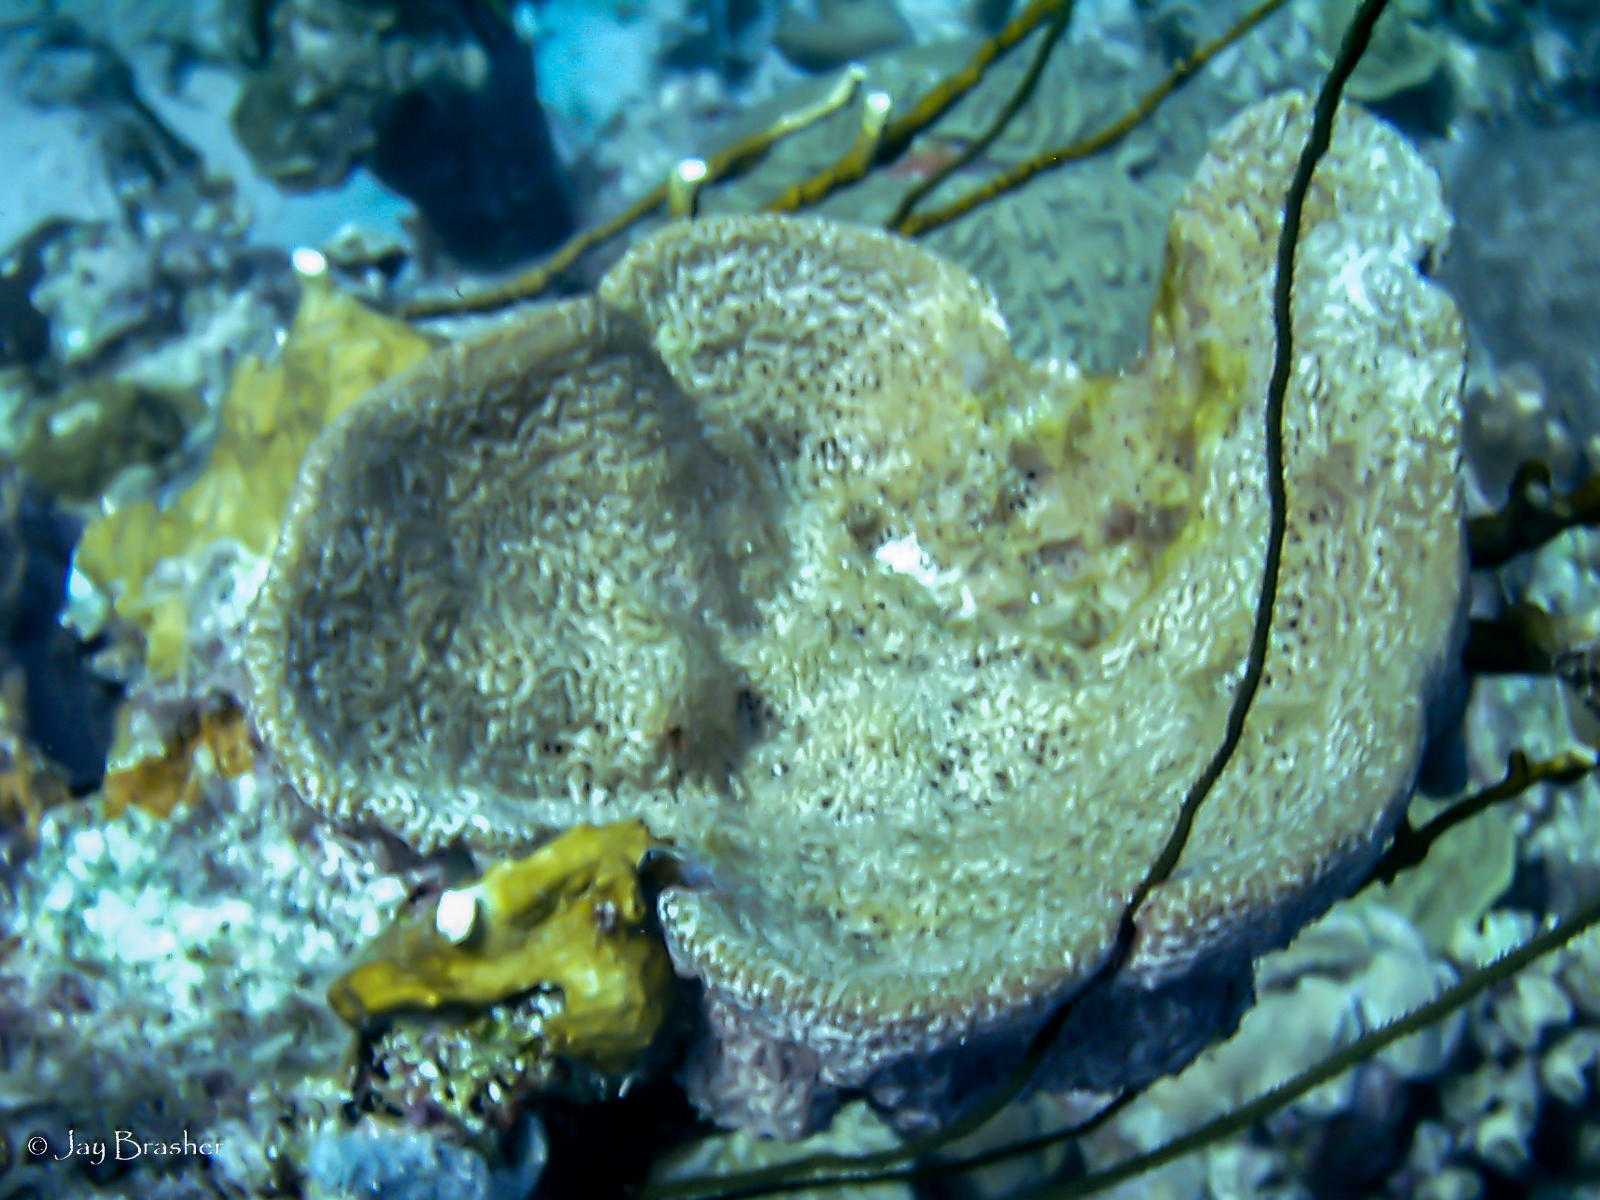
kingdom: Animalia
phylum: Cnidaria
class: Anthozoa
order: Antipatharia
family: Antipathidae
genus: Stichopathes
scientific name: Stichopathes luetkeni
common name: Black wire coral
